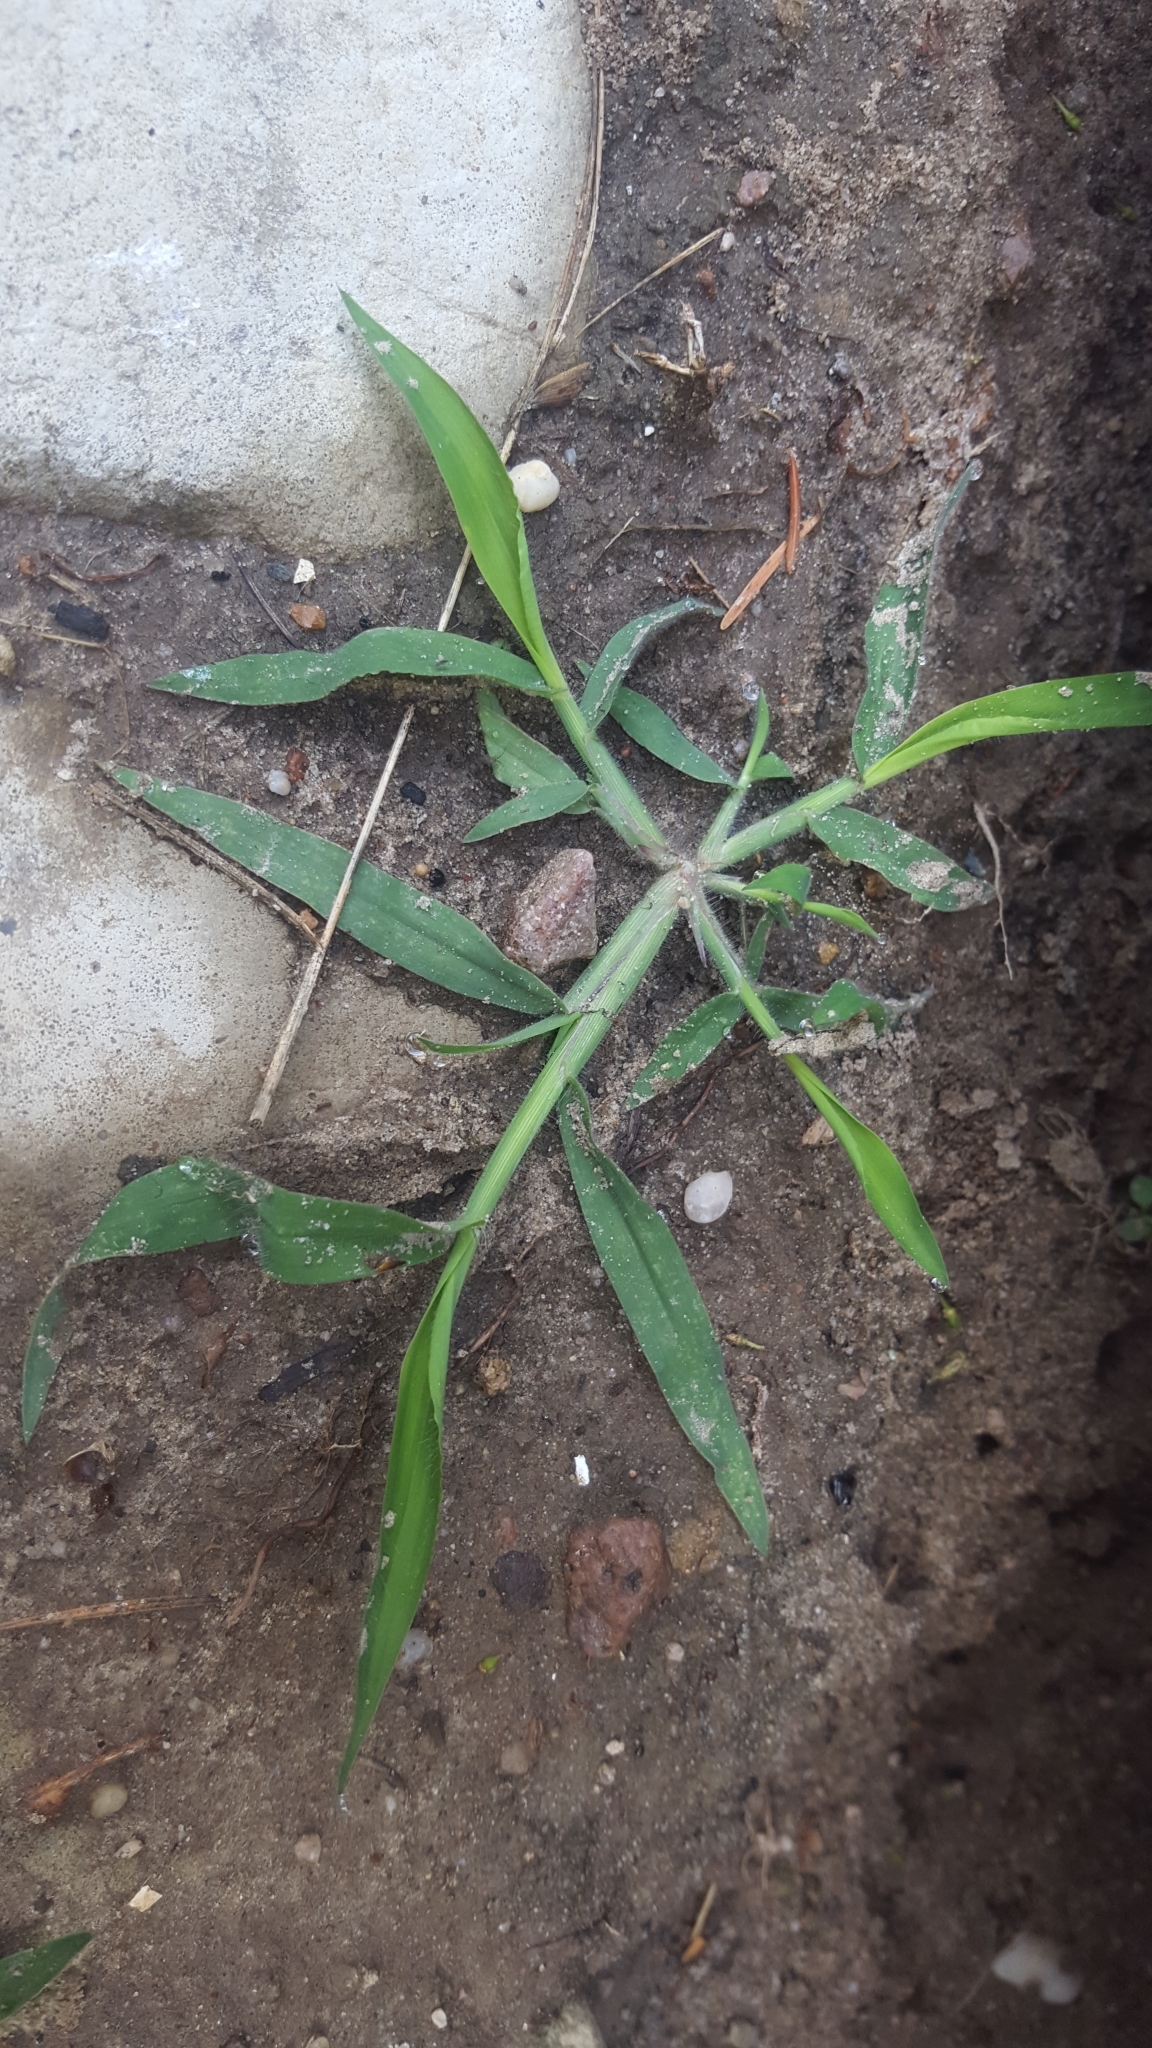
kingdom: Plantae
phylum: Tracheophyta
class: Liliopsida
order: Poales
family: Poaceae
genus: Digitaria
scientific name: Digitaria sanguinalis
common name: Hairy crabgrass
